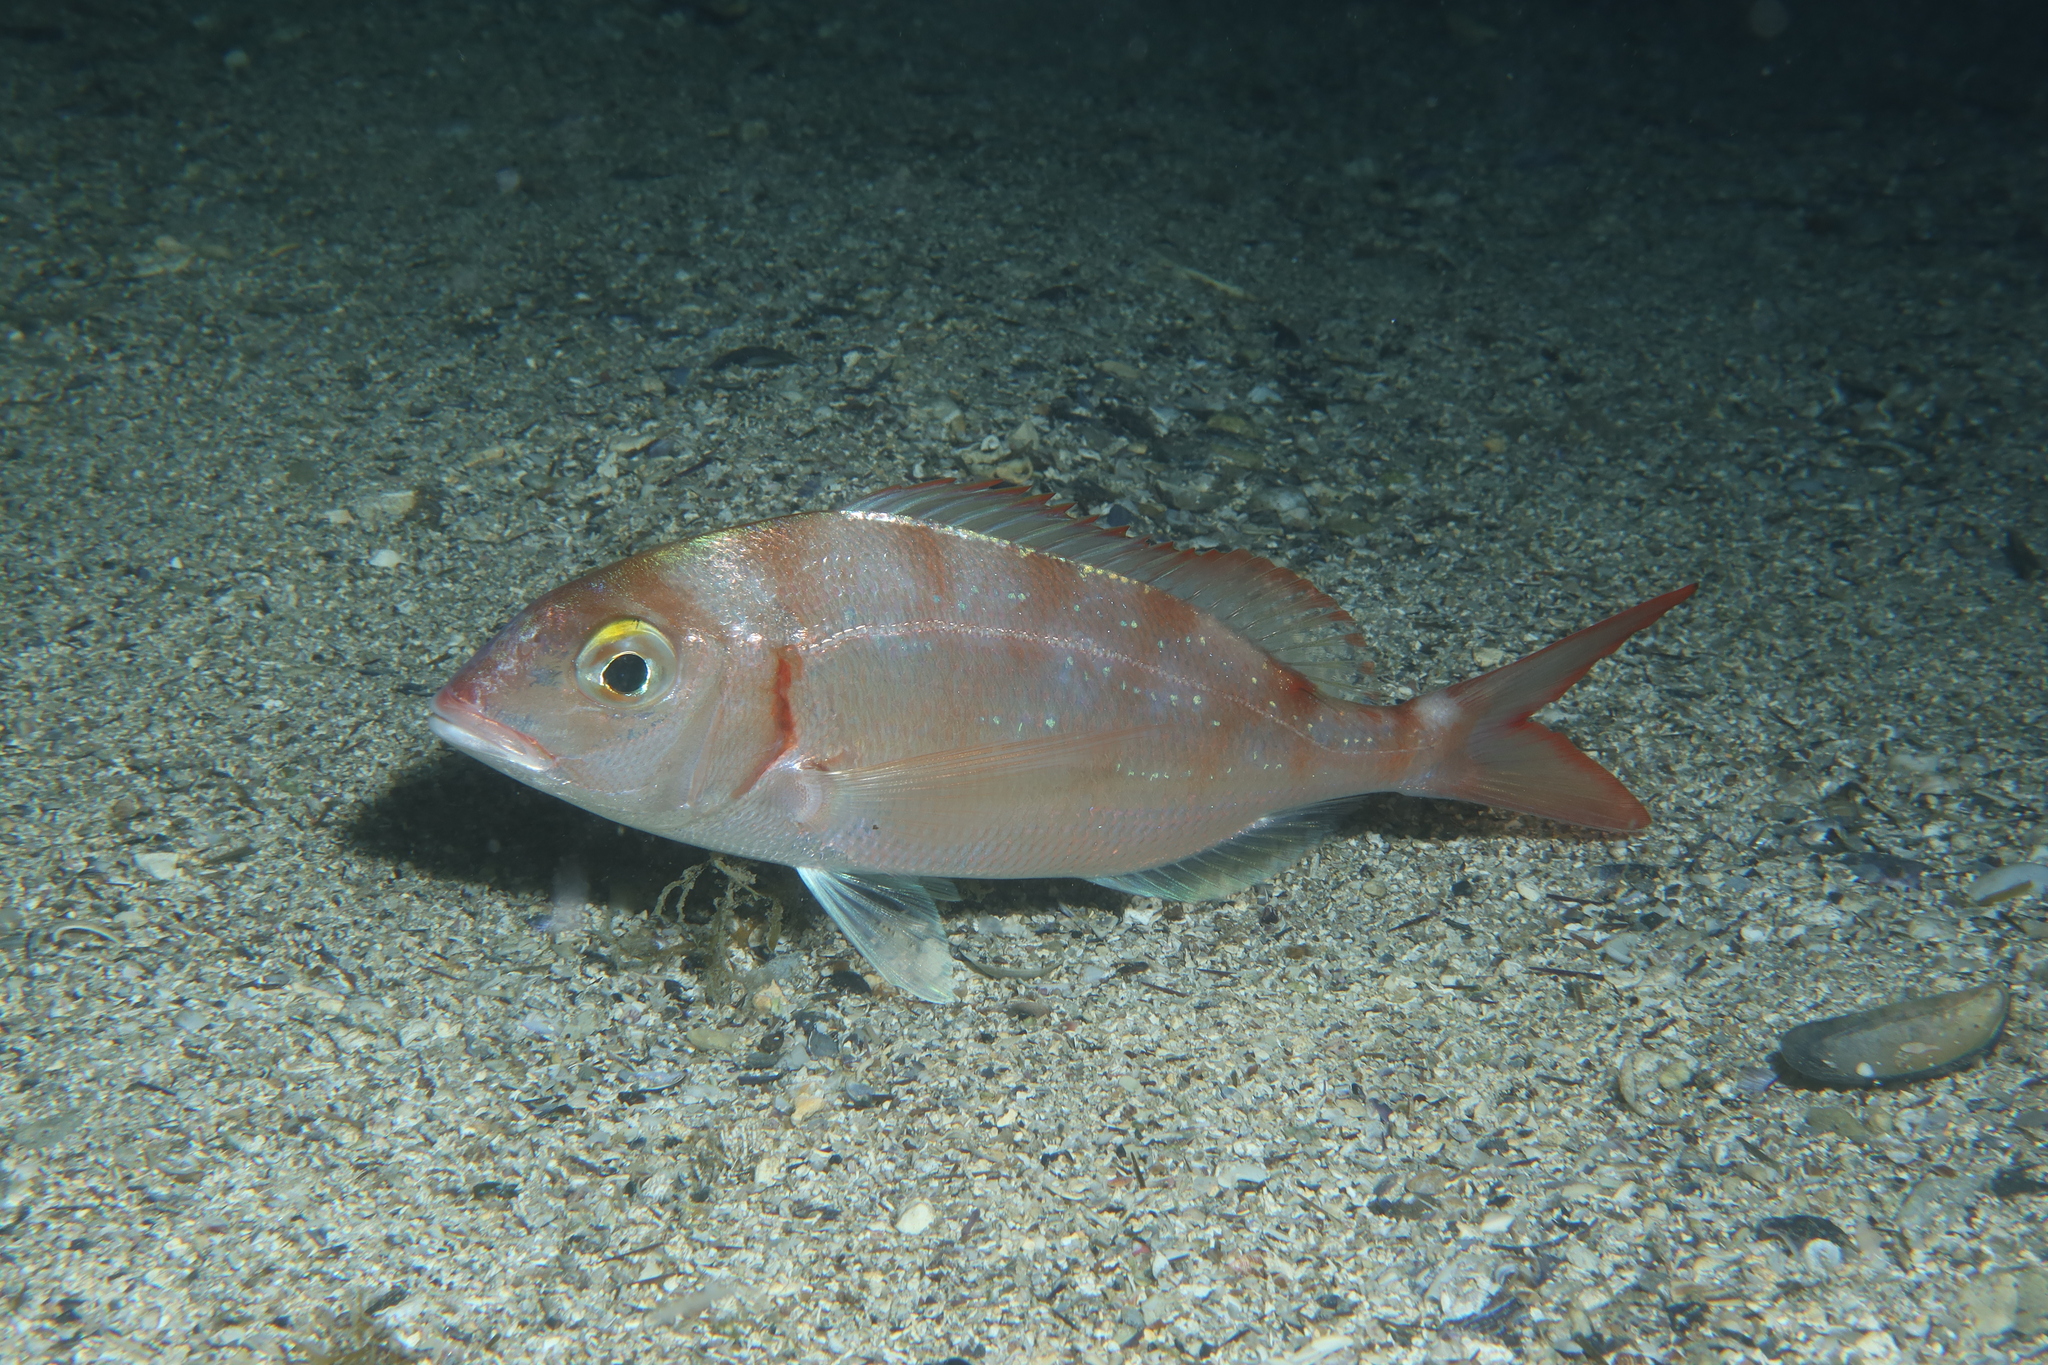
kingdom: Animalia
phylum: Chordata
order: Perciformes
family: Sparidae
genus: Pagellus
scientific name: Pagellus erythrinus
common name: Pandora
